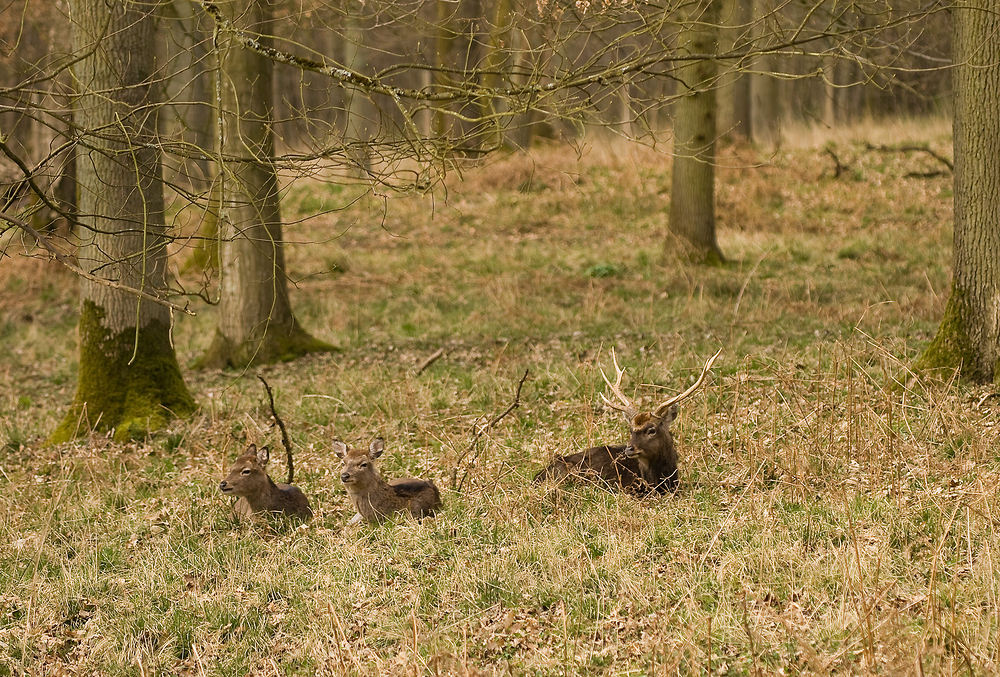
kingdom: Animalia
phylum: Chordata
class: Mammalia
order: Artiodactyla
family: Cervidae
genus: Cervus
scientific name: Cervus nippon
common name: Sika deer
